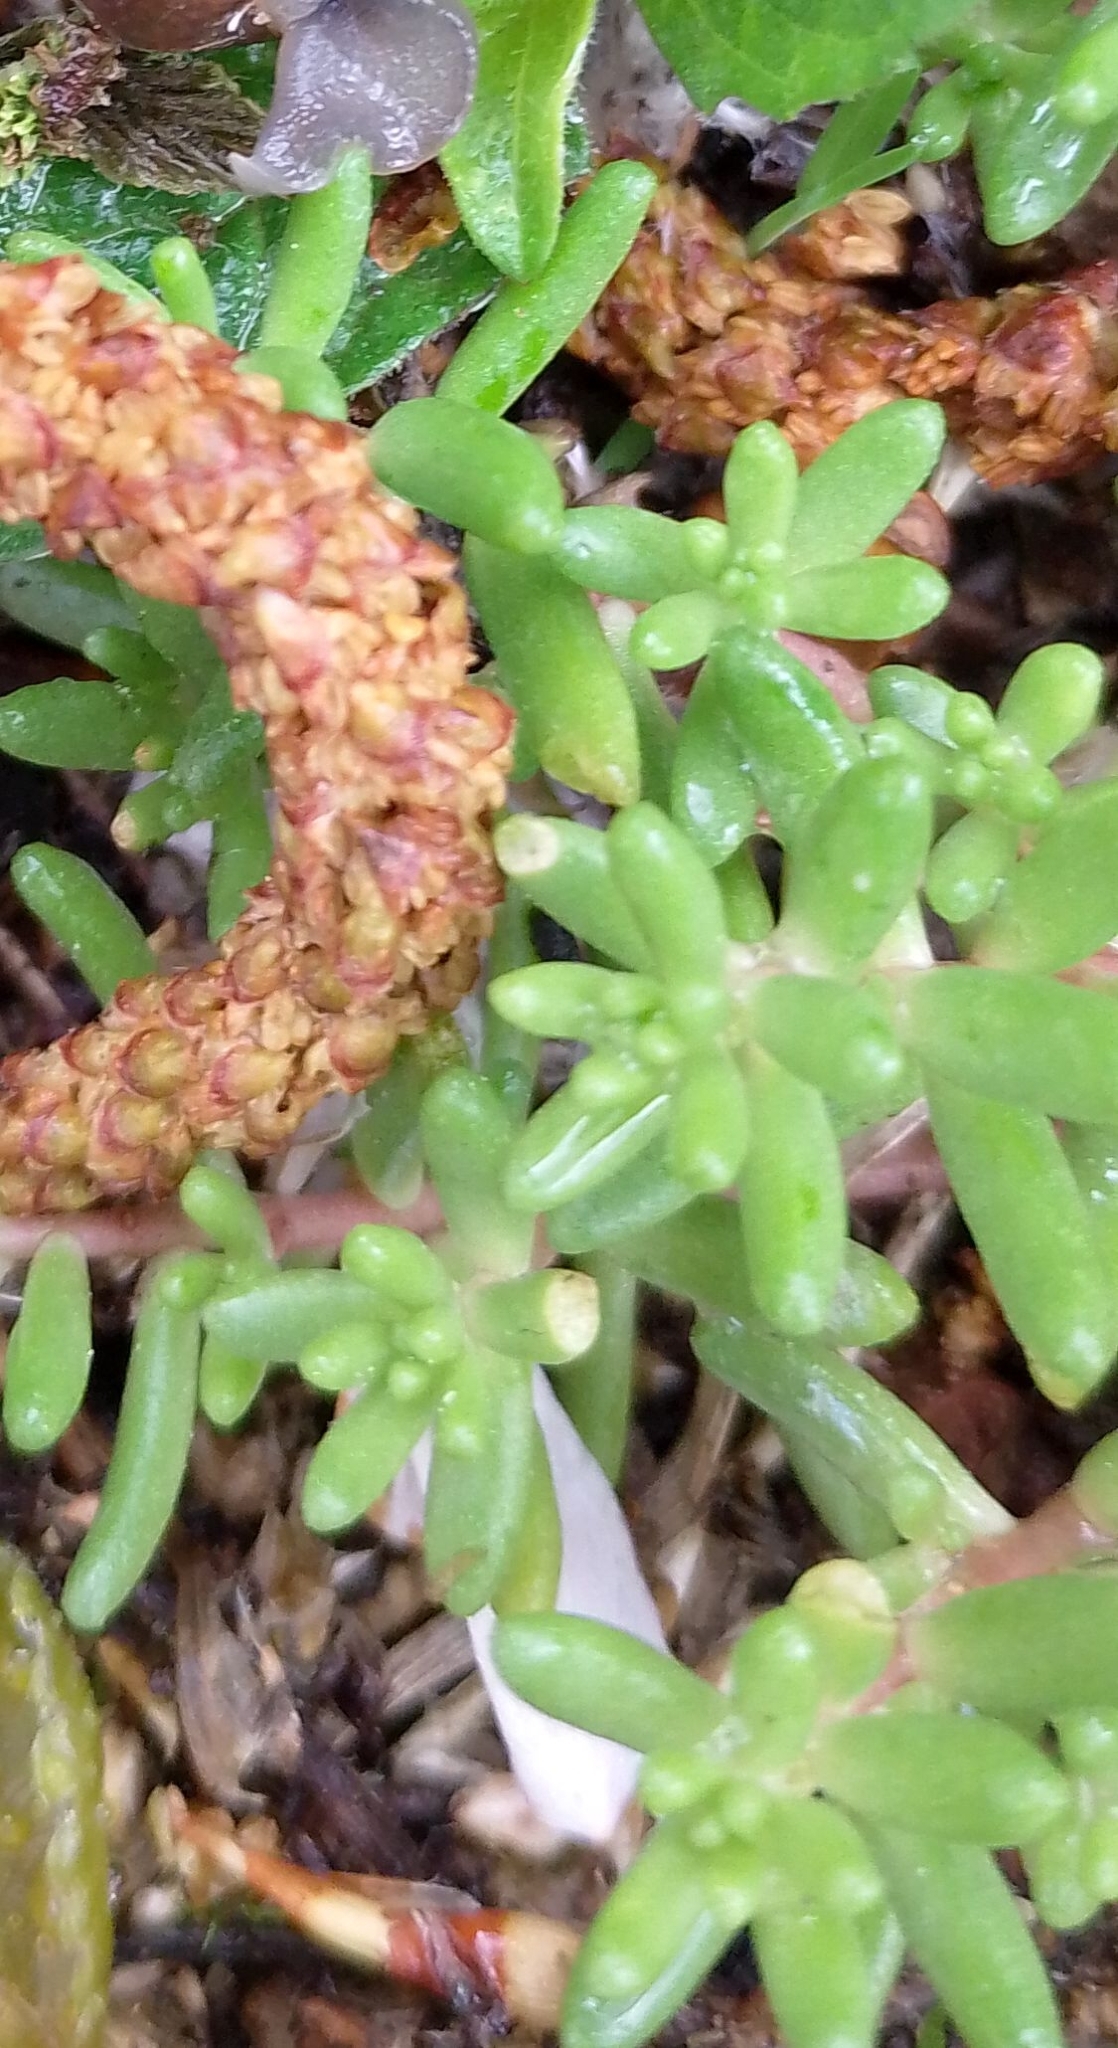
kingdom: Plantae
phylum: Tracheophyta
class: Magnoliopsida
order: Saxifragales
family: Crassulaceae
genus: Sedum
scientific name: Sedum album
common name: White stonecrop
